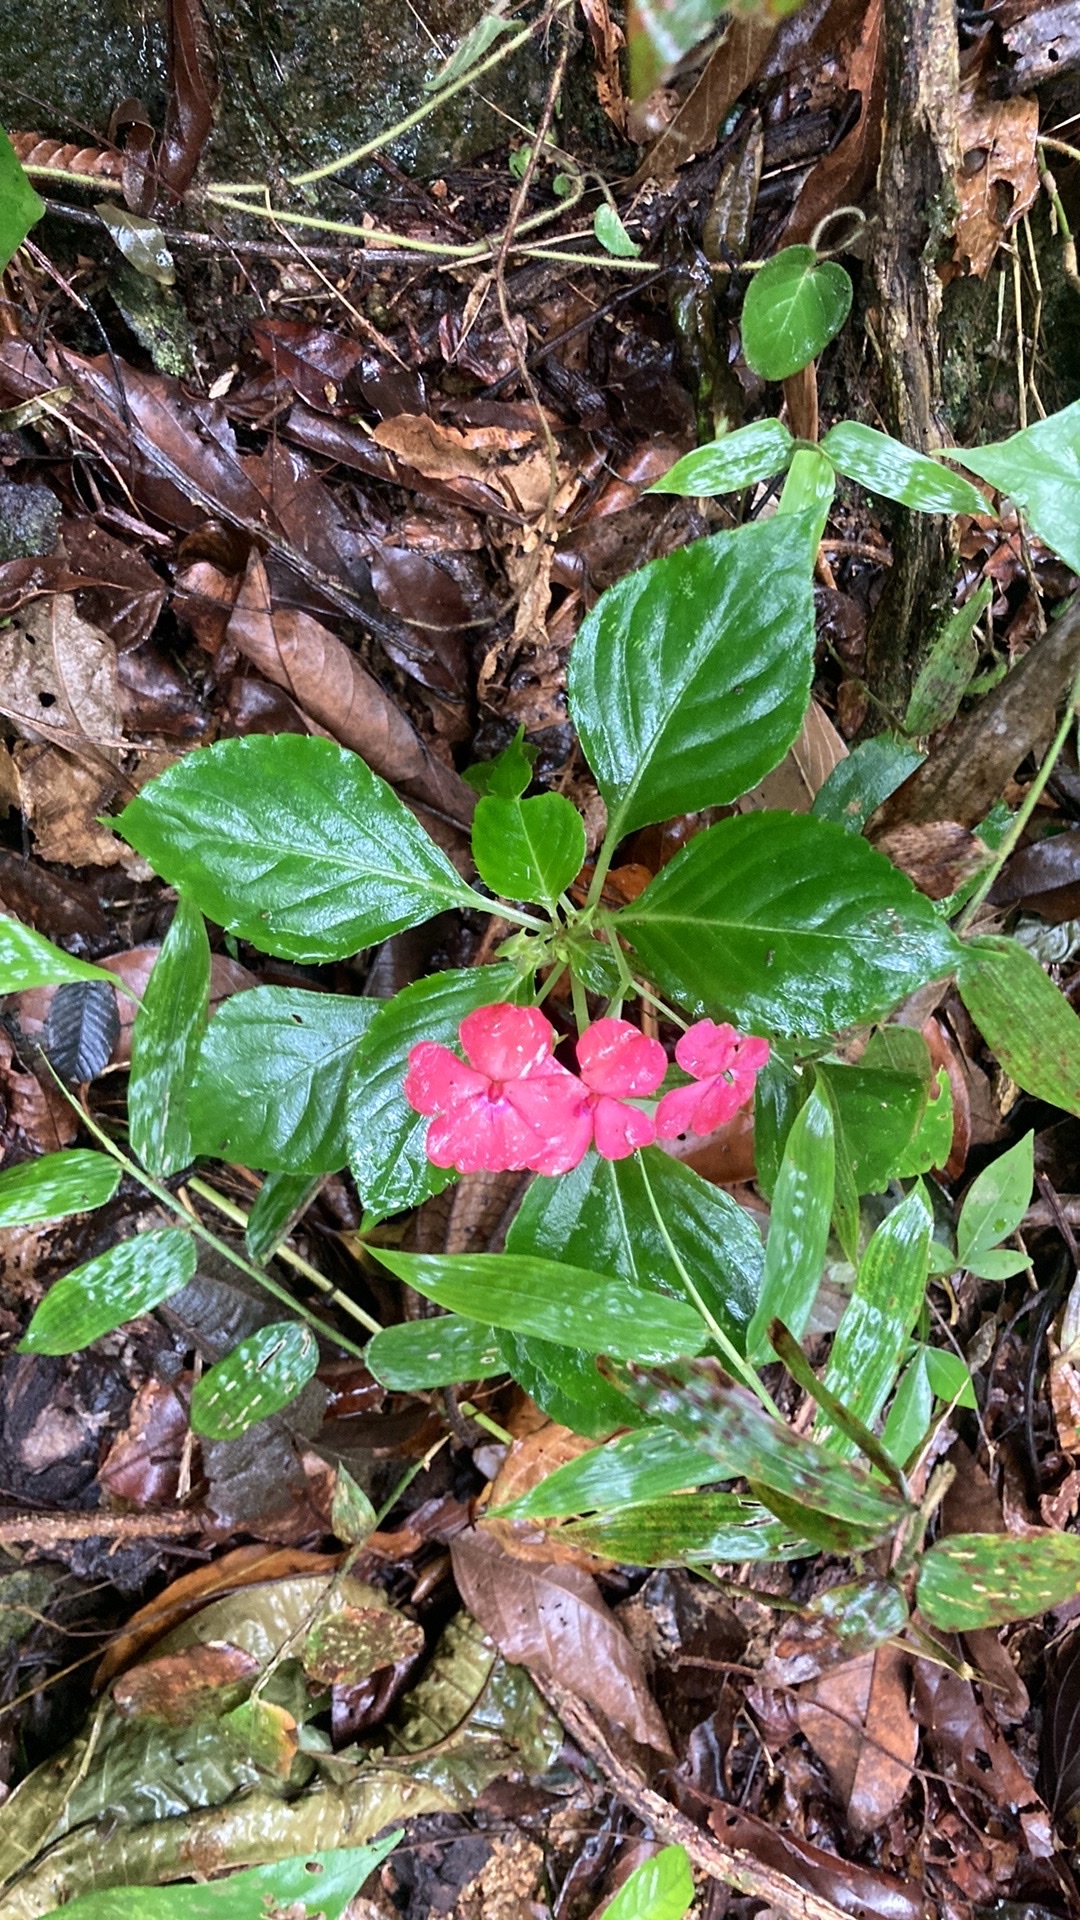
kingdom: Plantae
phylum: Tracheophyta
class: Magnoliopsida
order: Ericales
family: Balsaminaceae
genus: Impatiens
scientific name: Impatiens walleriana
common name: Buzzy lizzy
